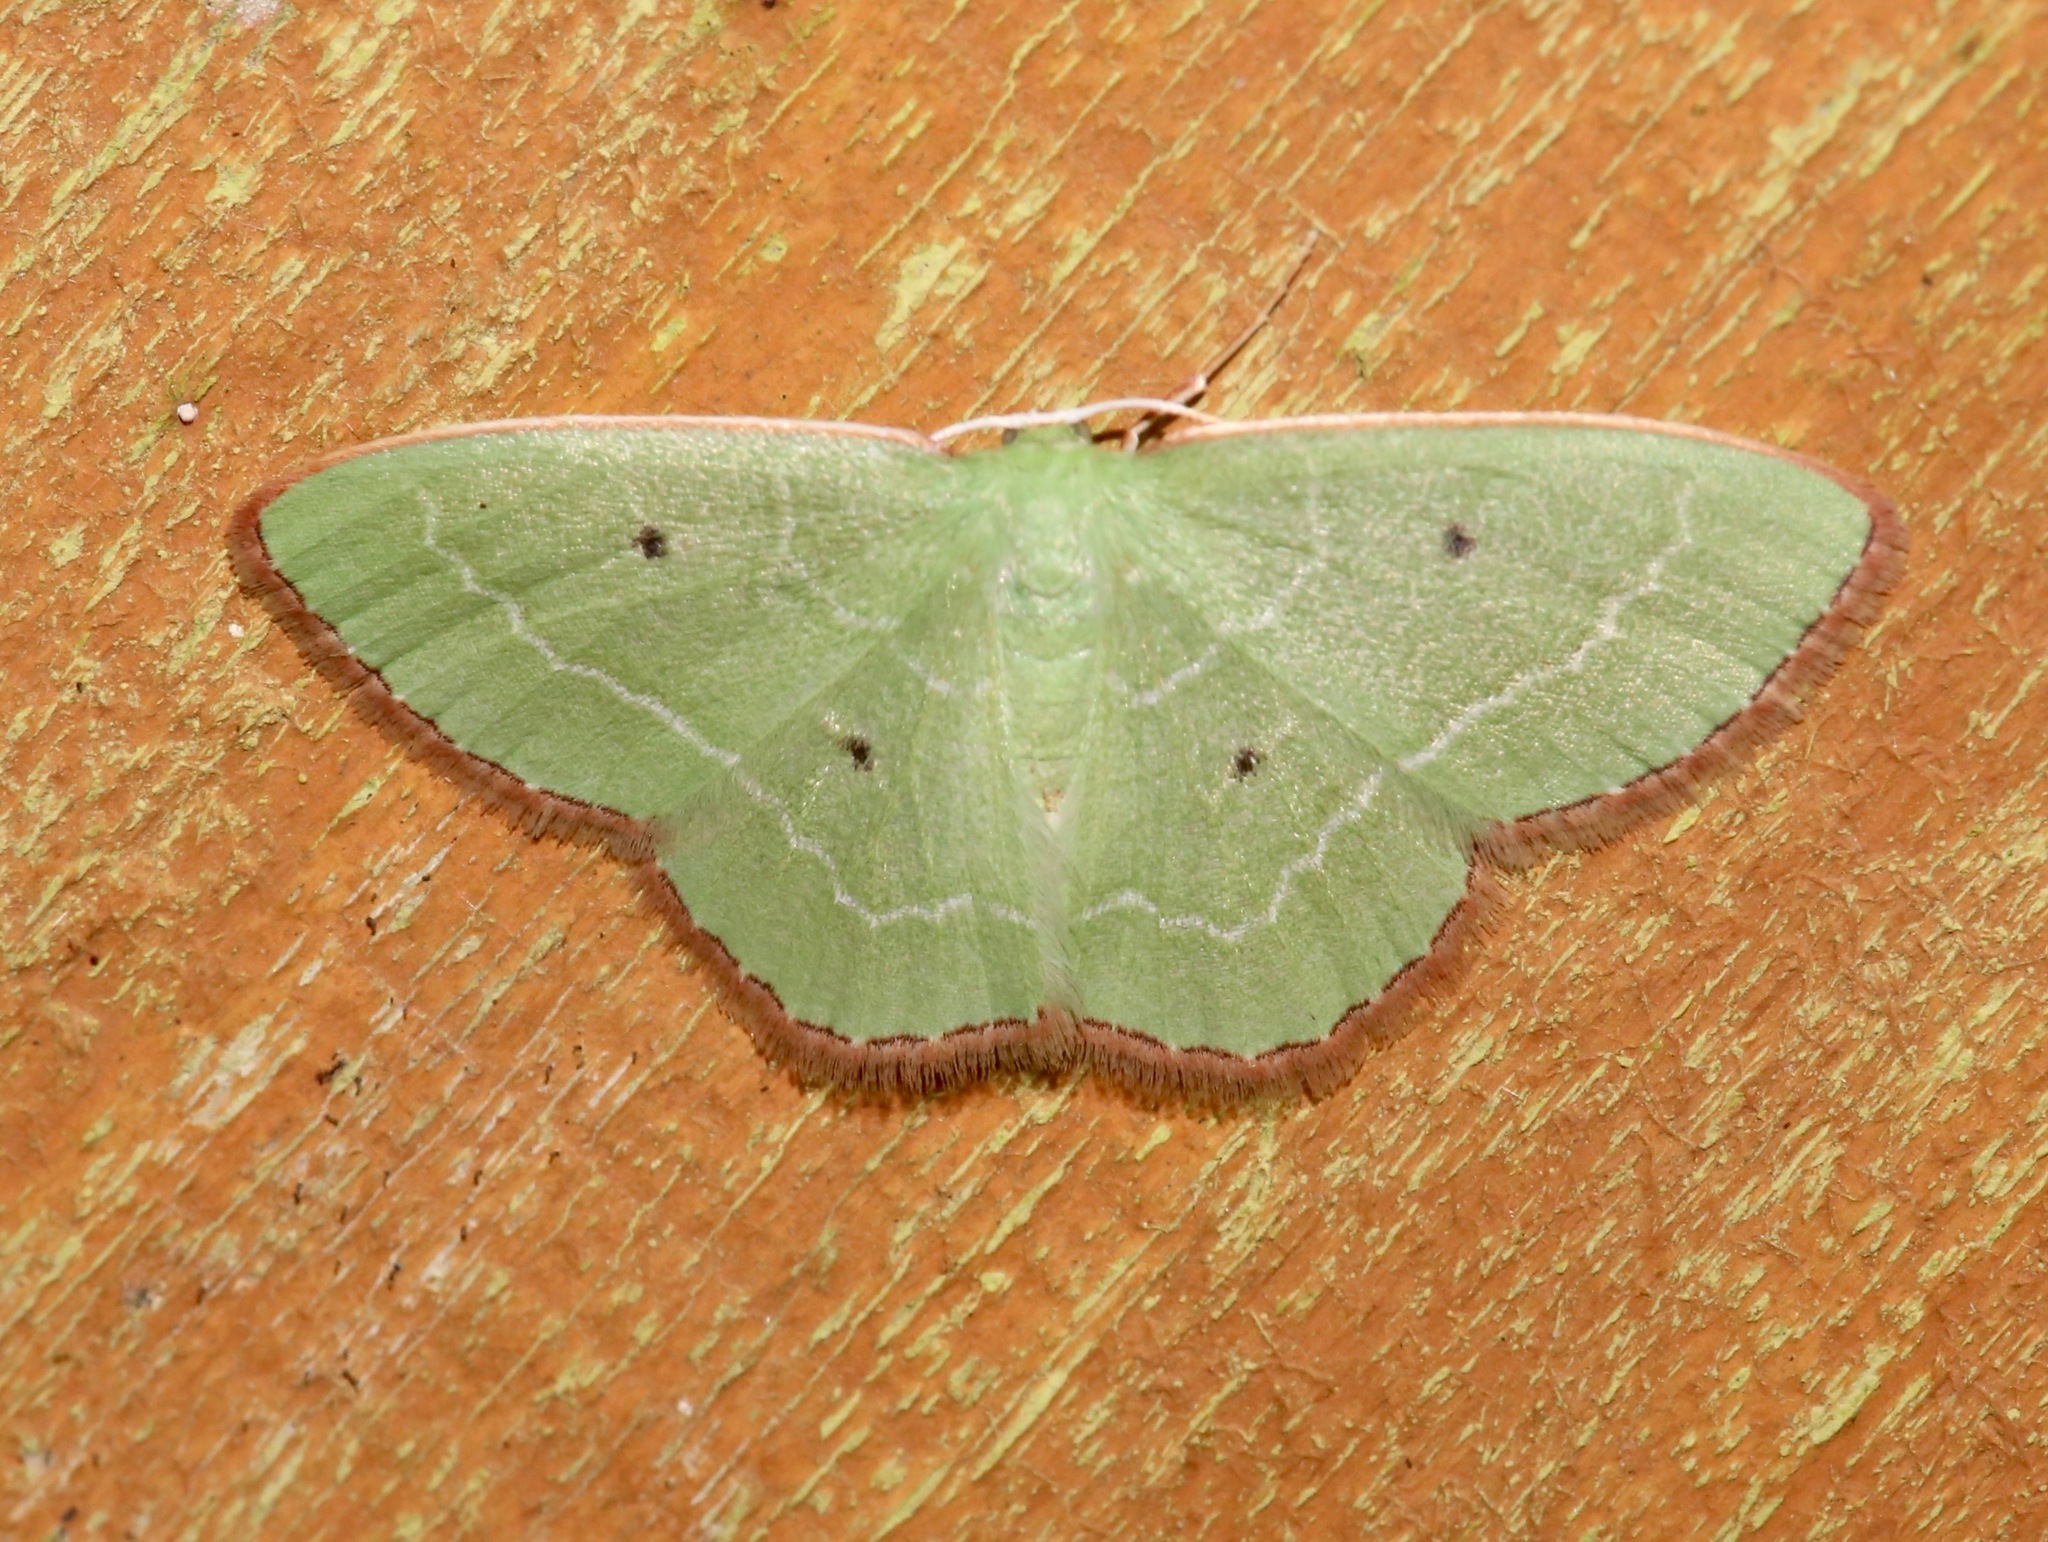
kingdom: Animalia
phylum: Arthropoda
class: Insecta
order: Lepidoptera
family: Geometridae
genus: Nemoria
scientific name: Nemoria elfa
